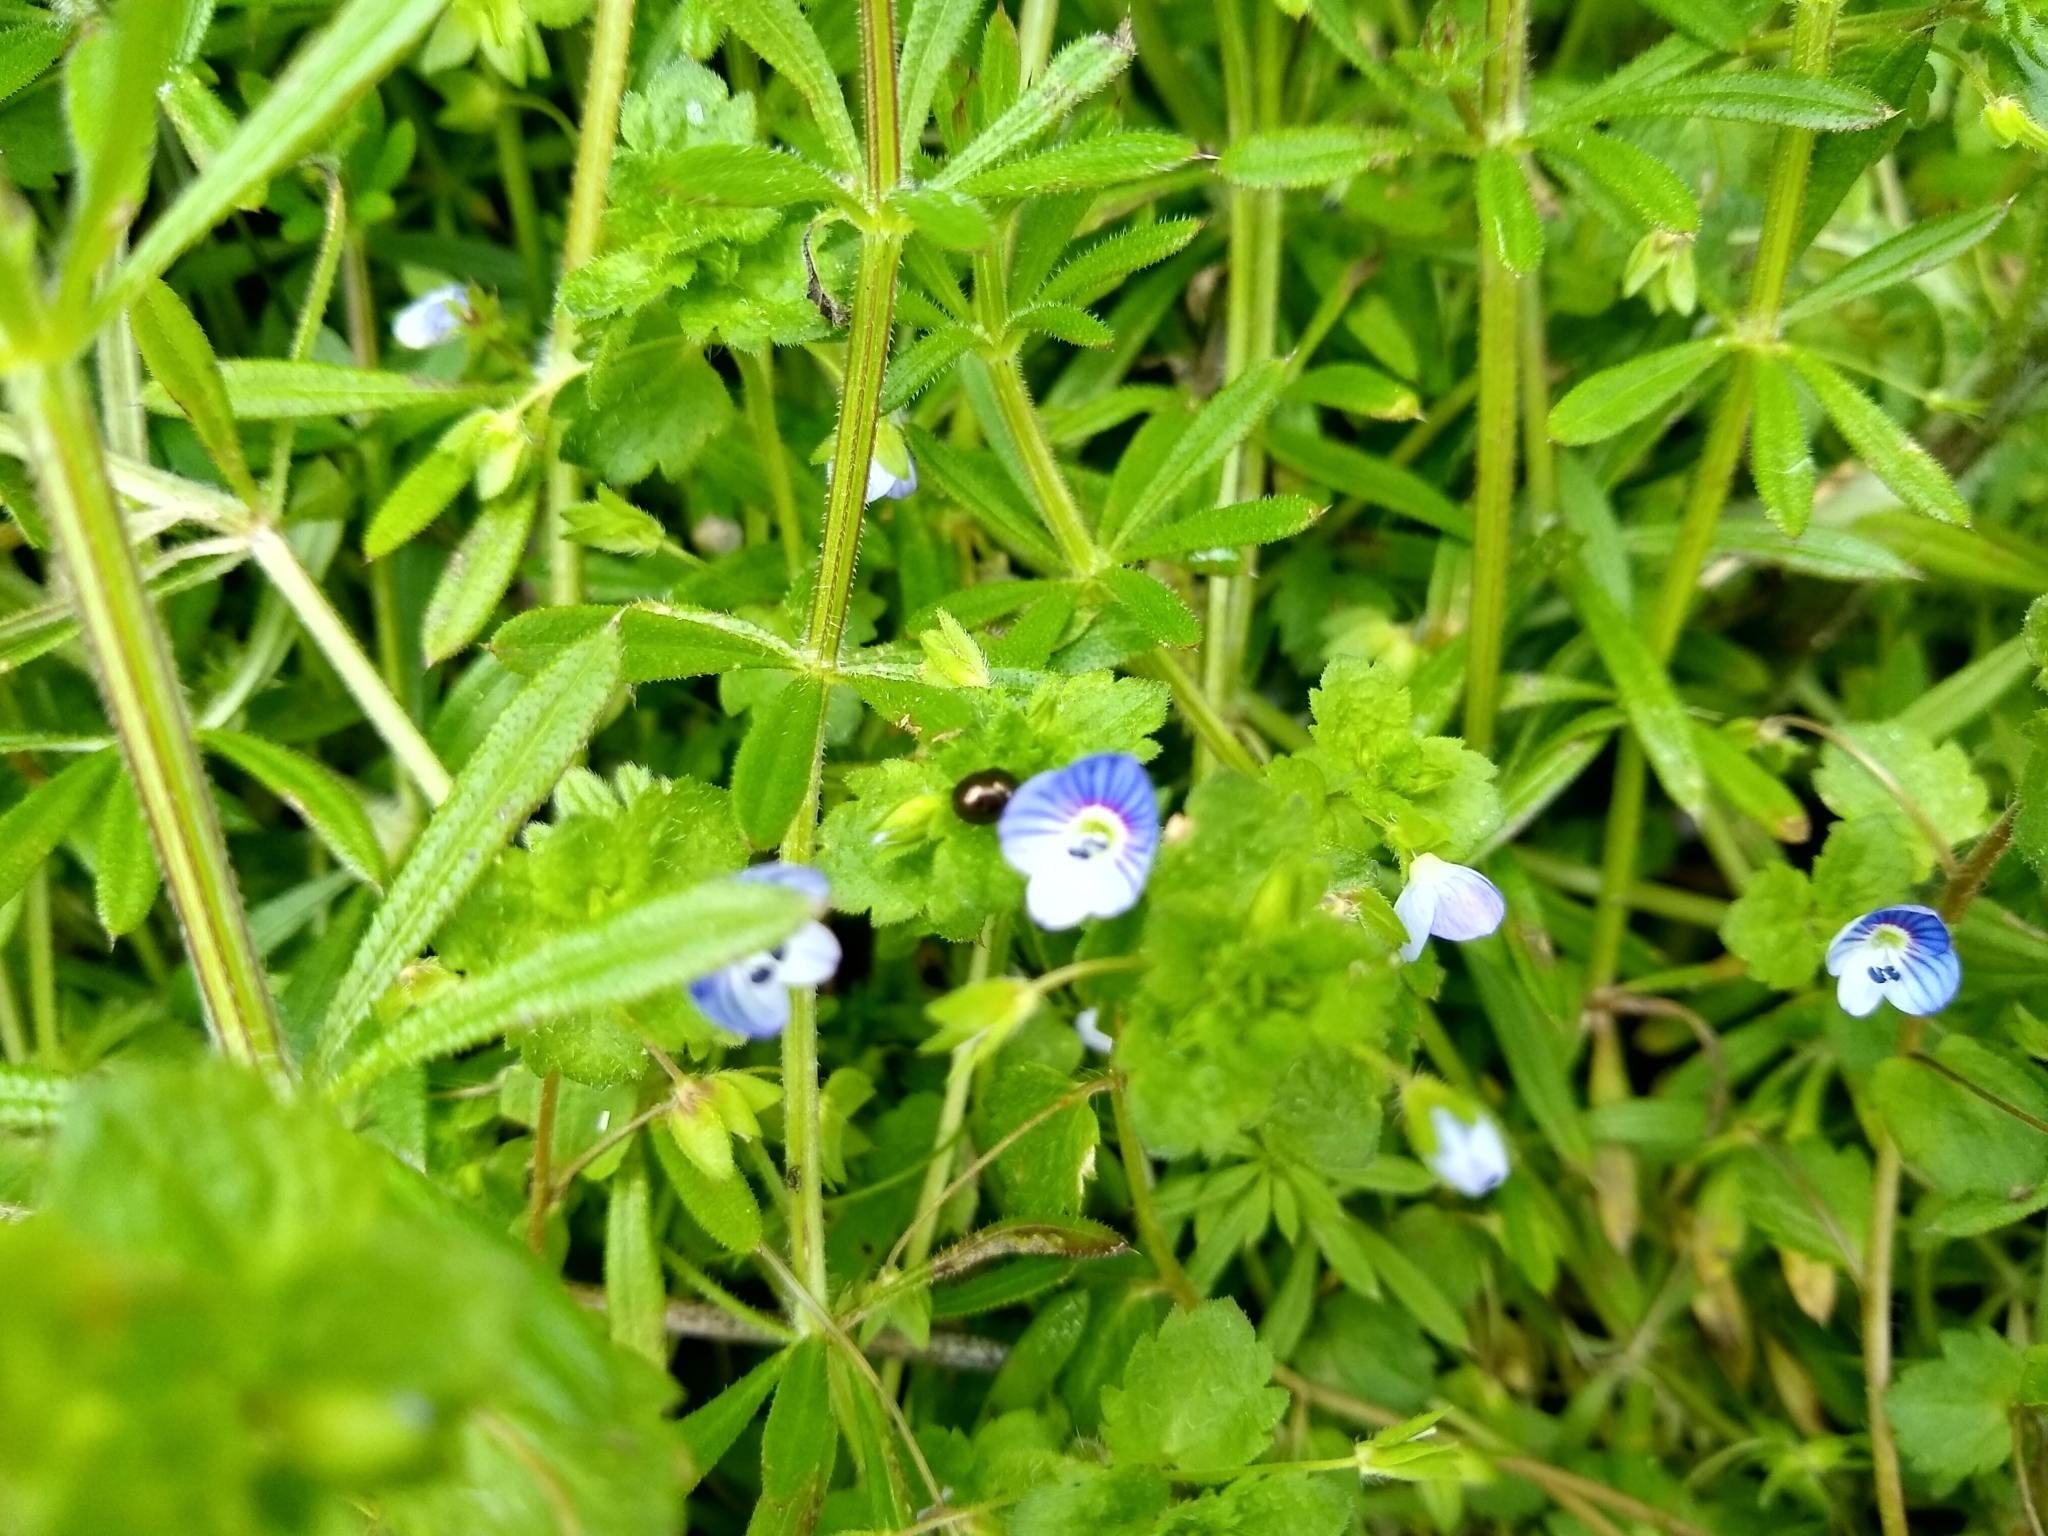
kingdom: Plantae
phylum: Tracheophyta
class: Magnoliopsida
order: Lamiales
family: Plantaginaceae
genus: Veronica
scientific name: Veronica persica
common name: Common field-speedwell
